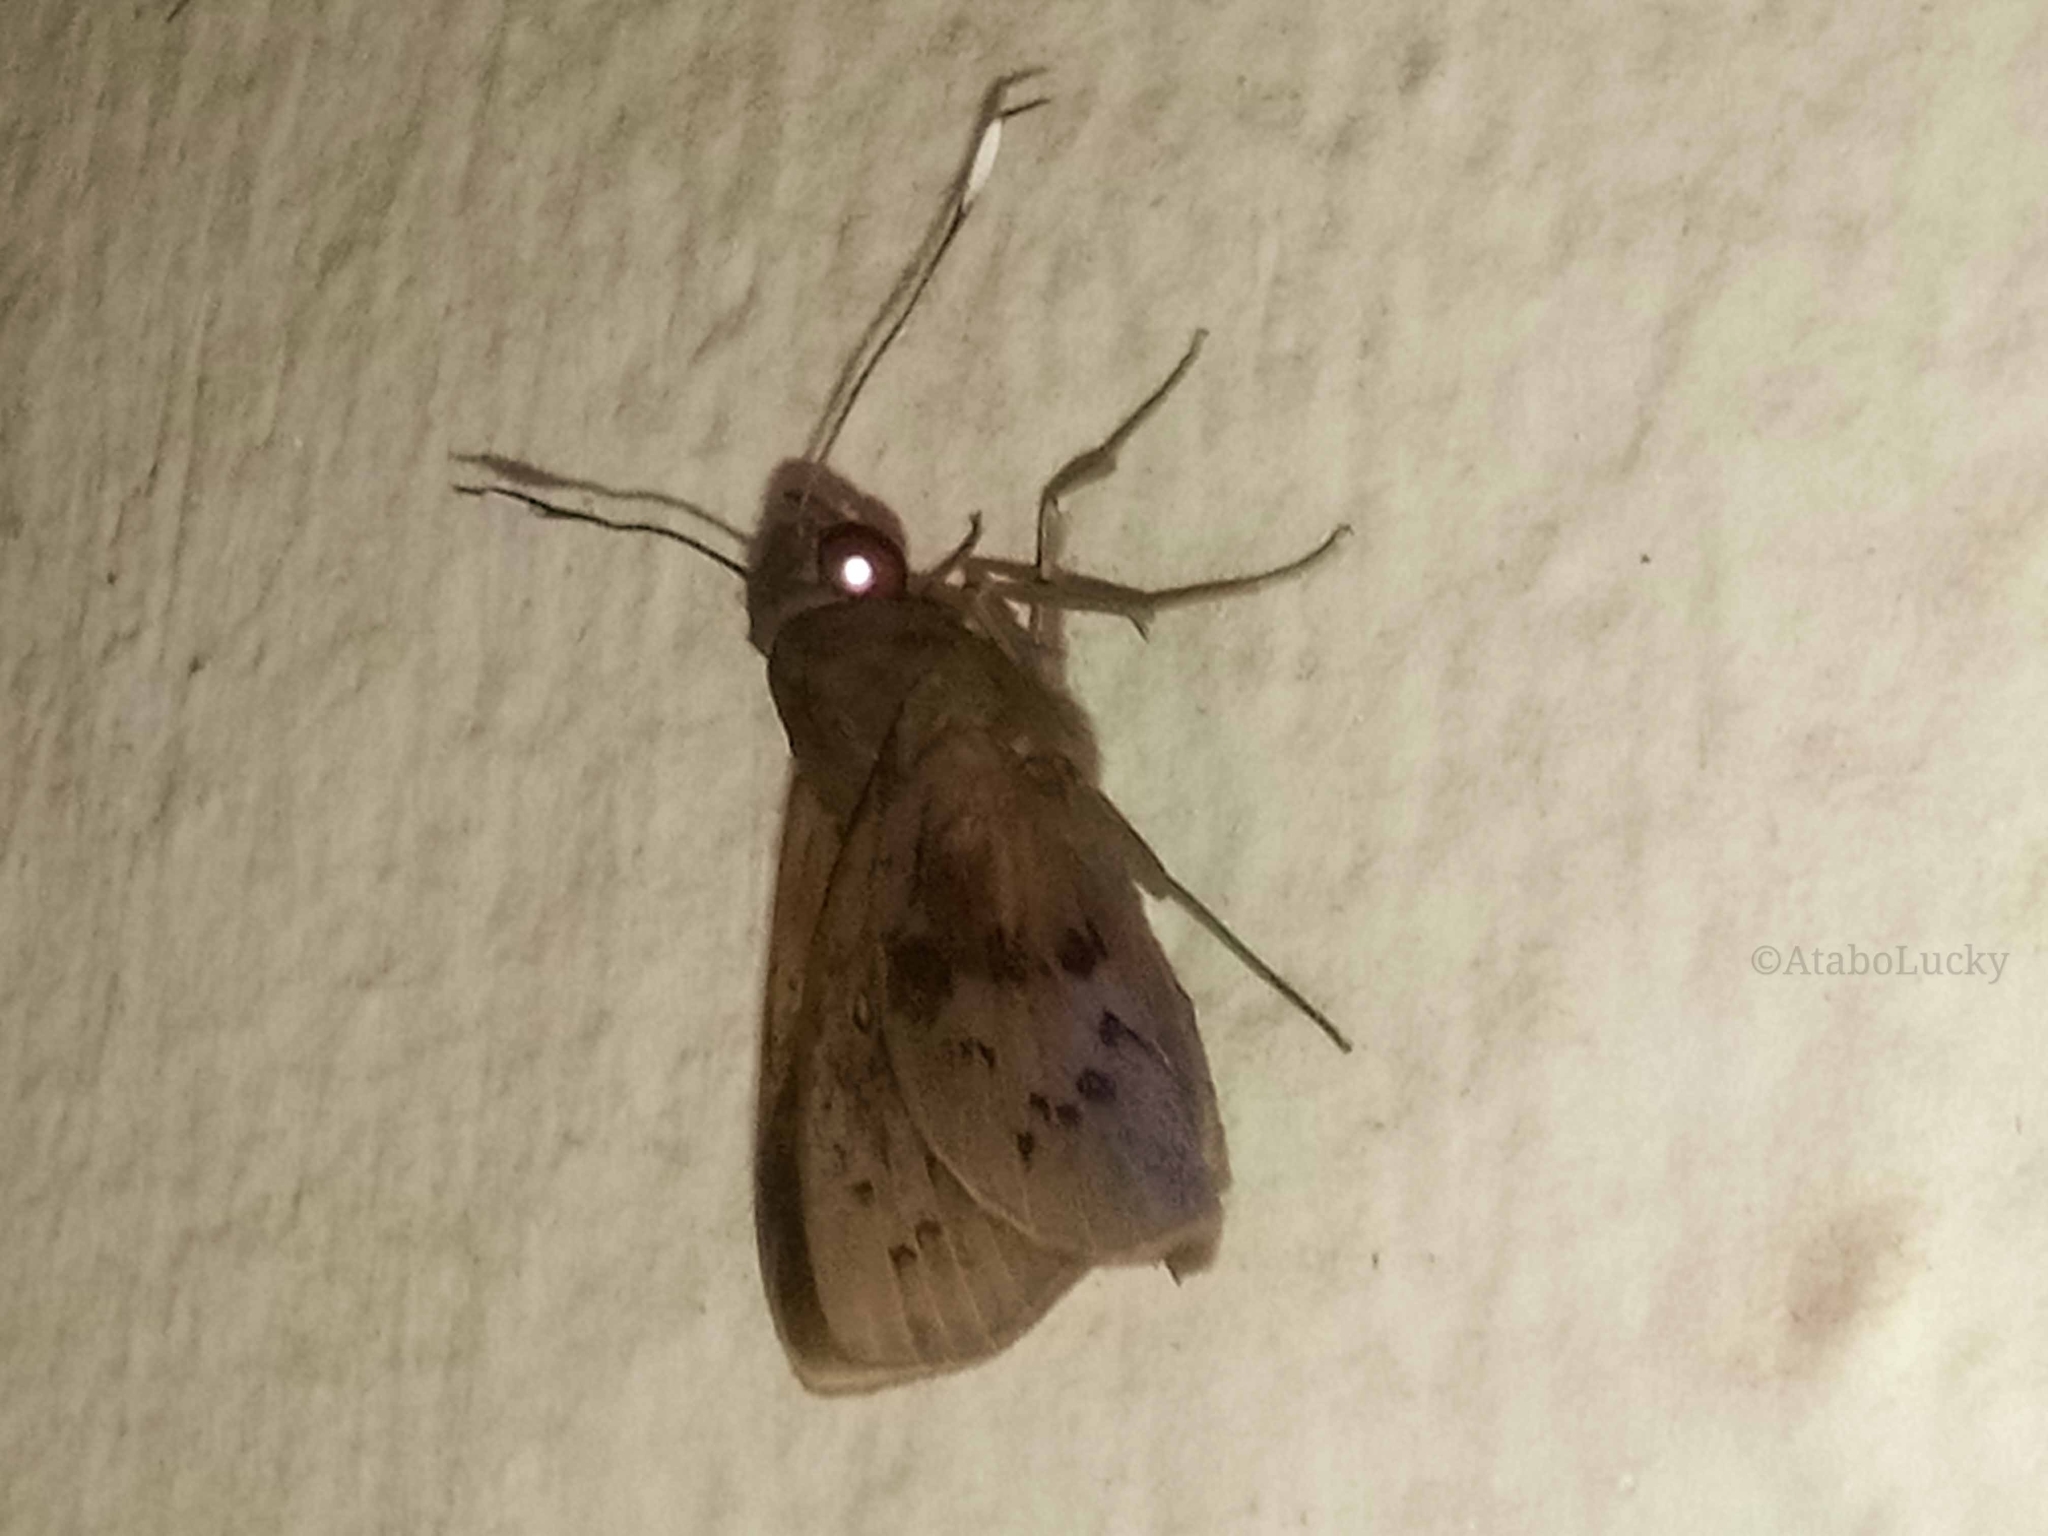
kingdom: Animalia
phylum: Arthropoda
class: Insecta
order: Lepidoptera
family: Hesperiidae
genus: Zophopetes
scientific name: Zophopetes cerymica
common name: Common palm nightfighter
